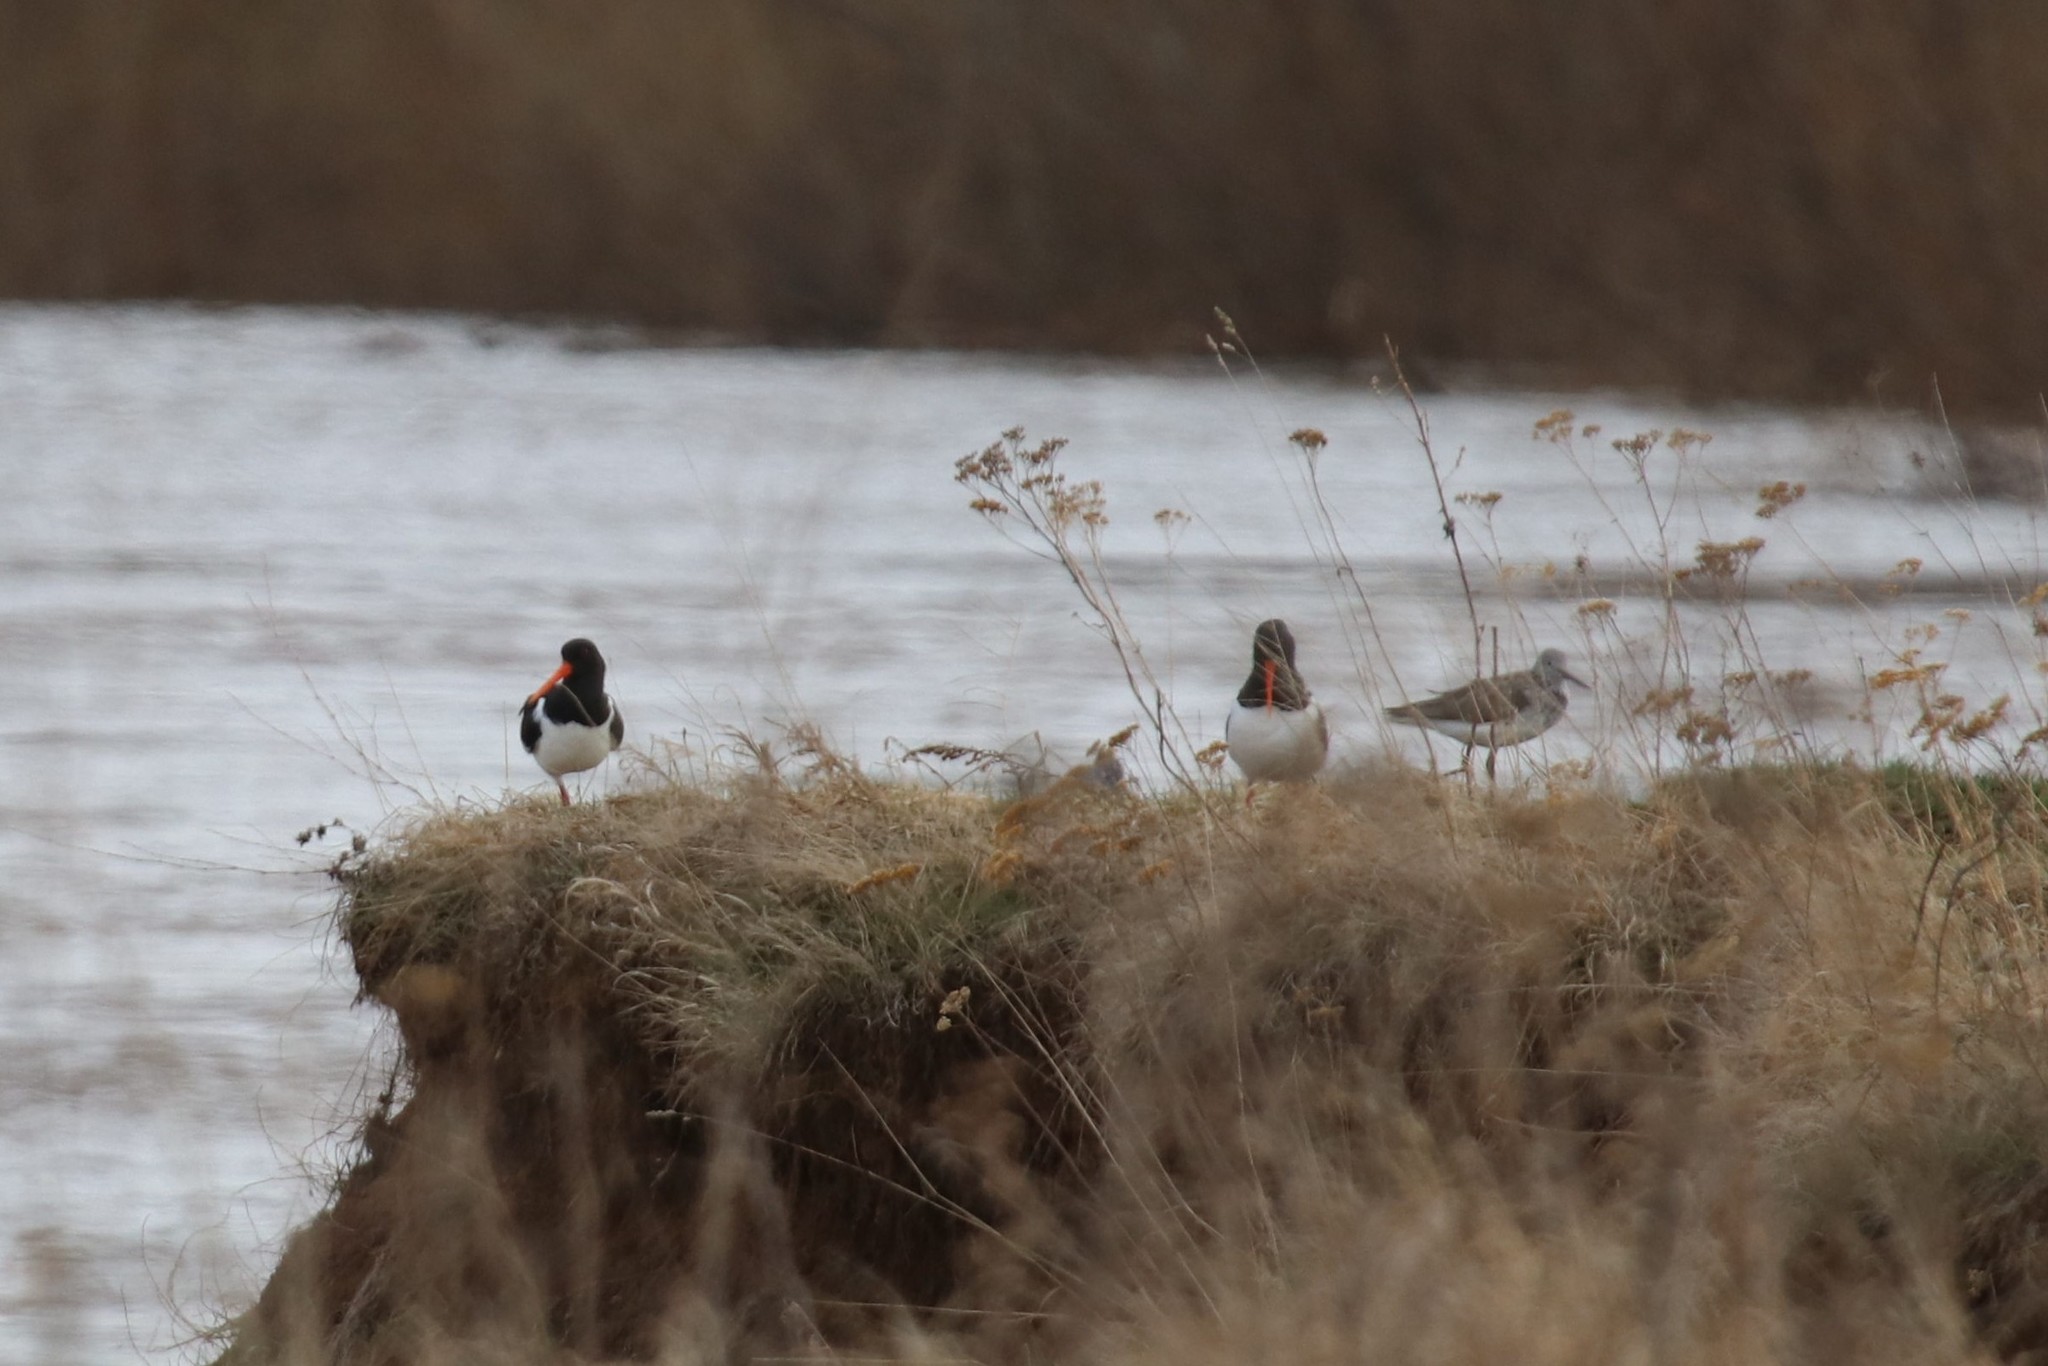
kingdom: Animalia
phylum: Chordata
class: Aves
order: Charadriiformes
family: Haematopodidae
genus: Haematopus
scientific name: Haematopus ostralegus
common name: Eurasian oystercatcher
